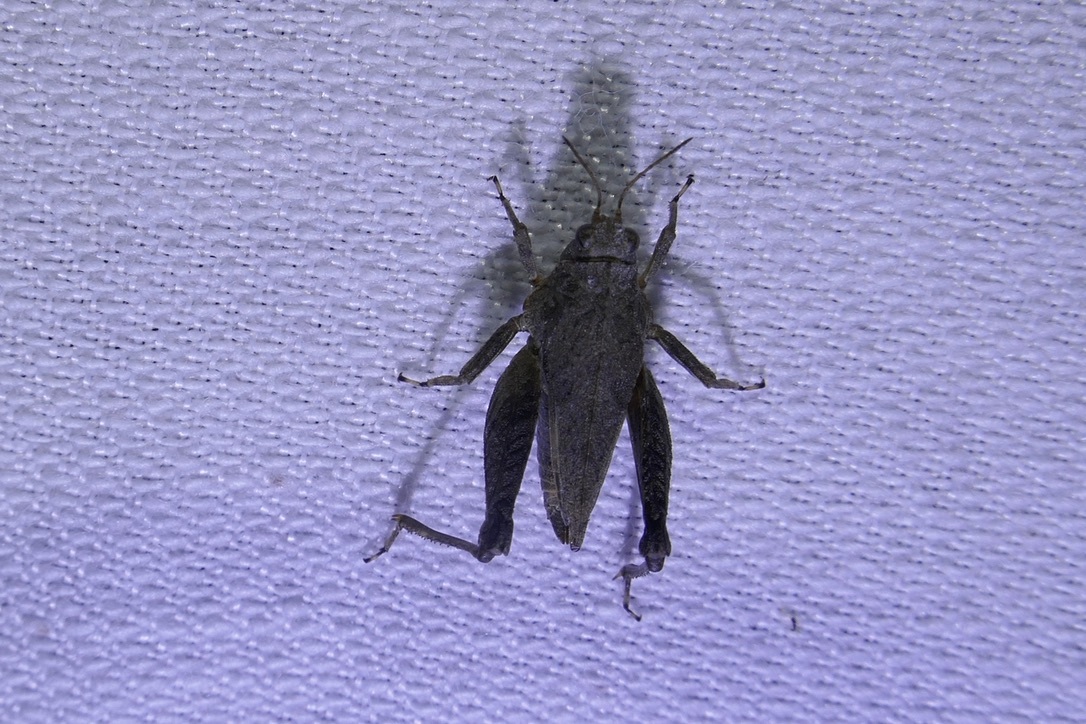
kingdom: Animalia
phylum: Arthropoda
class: Insecta
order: Orthoptera
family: Tetrigidae
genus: Tetrix
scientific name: Tetrix tenuicornis
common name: Long-horned groundhopper
